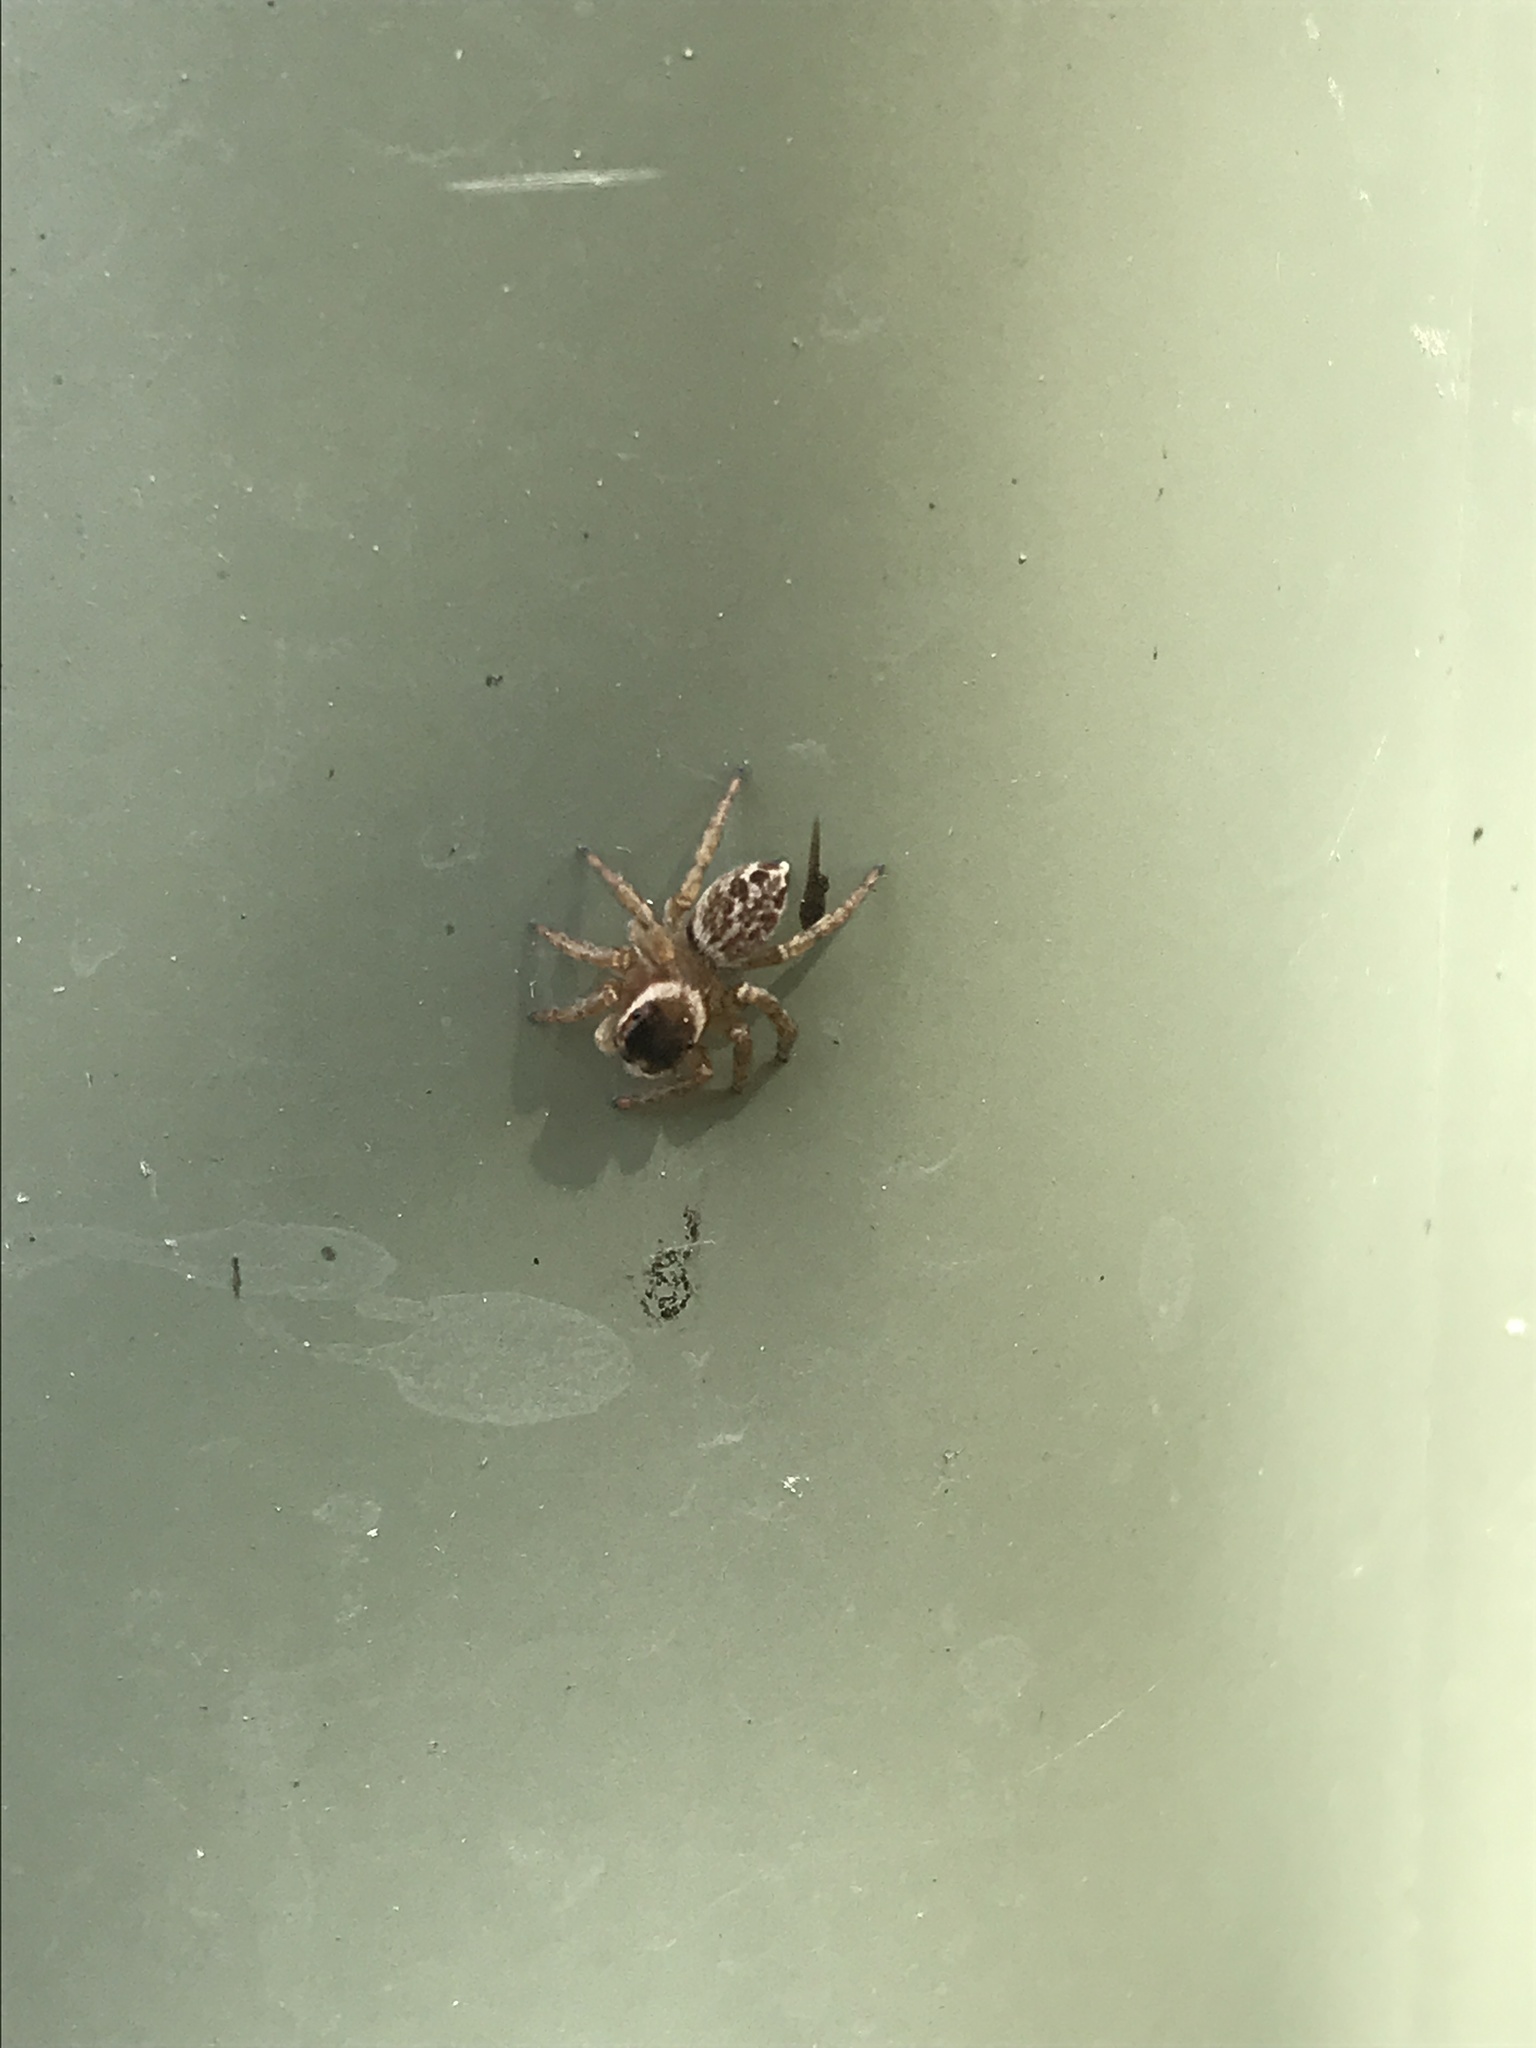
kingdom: Animalia
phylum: Arthropoda
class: Arachnida
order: Araneae
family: Salticidae
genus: Maratus
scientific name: Maratus griseus
